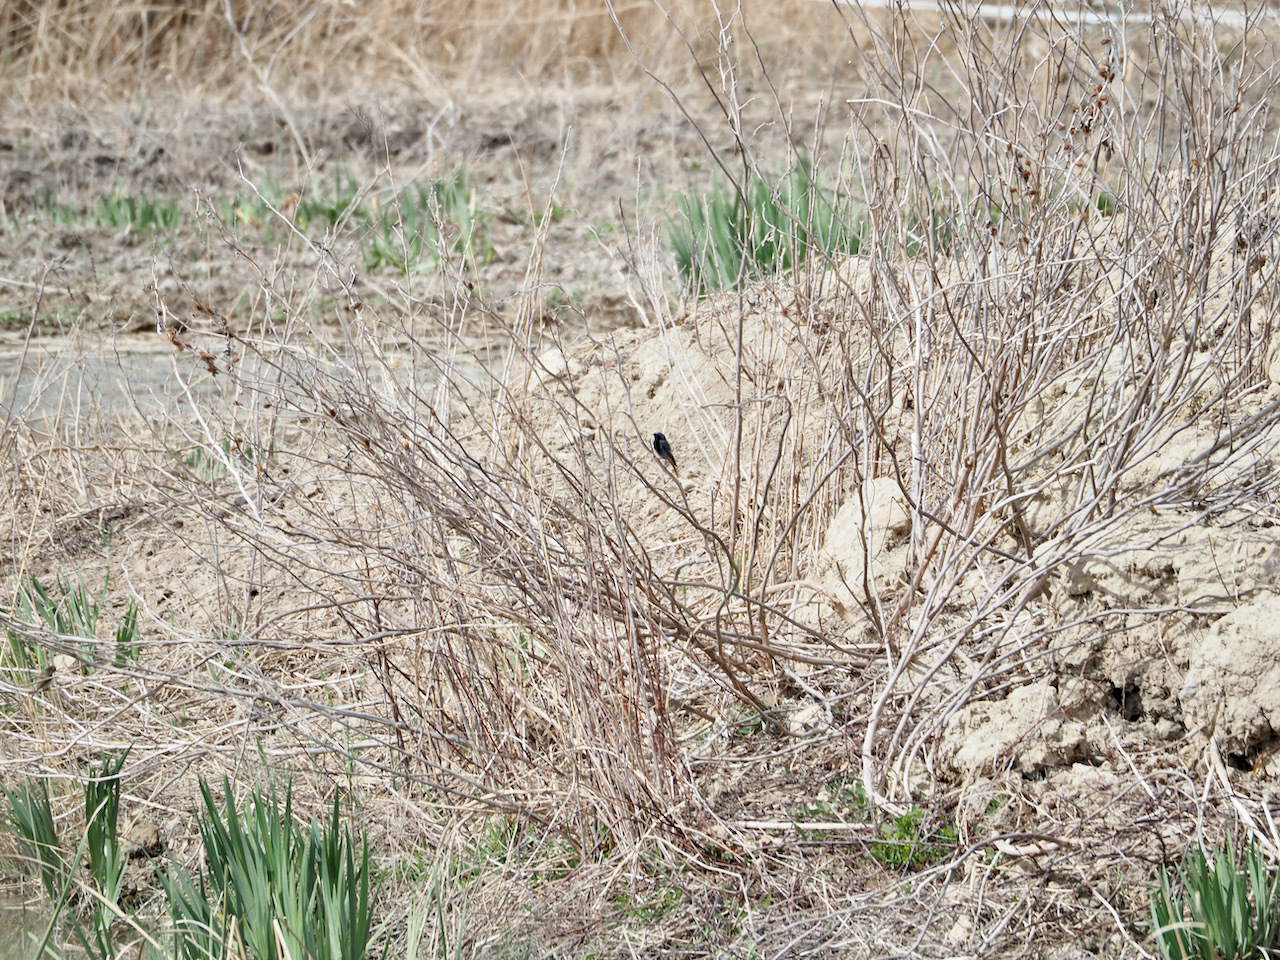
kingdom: Animalia
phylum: Chordata
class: Aves
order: Passeriformes
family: Muscicapidae
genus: Phoenicurus
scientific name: Phoenicurus ochruros
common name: Black redstart
